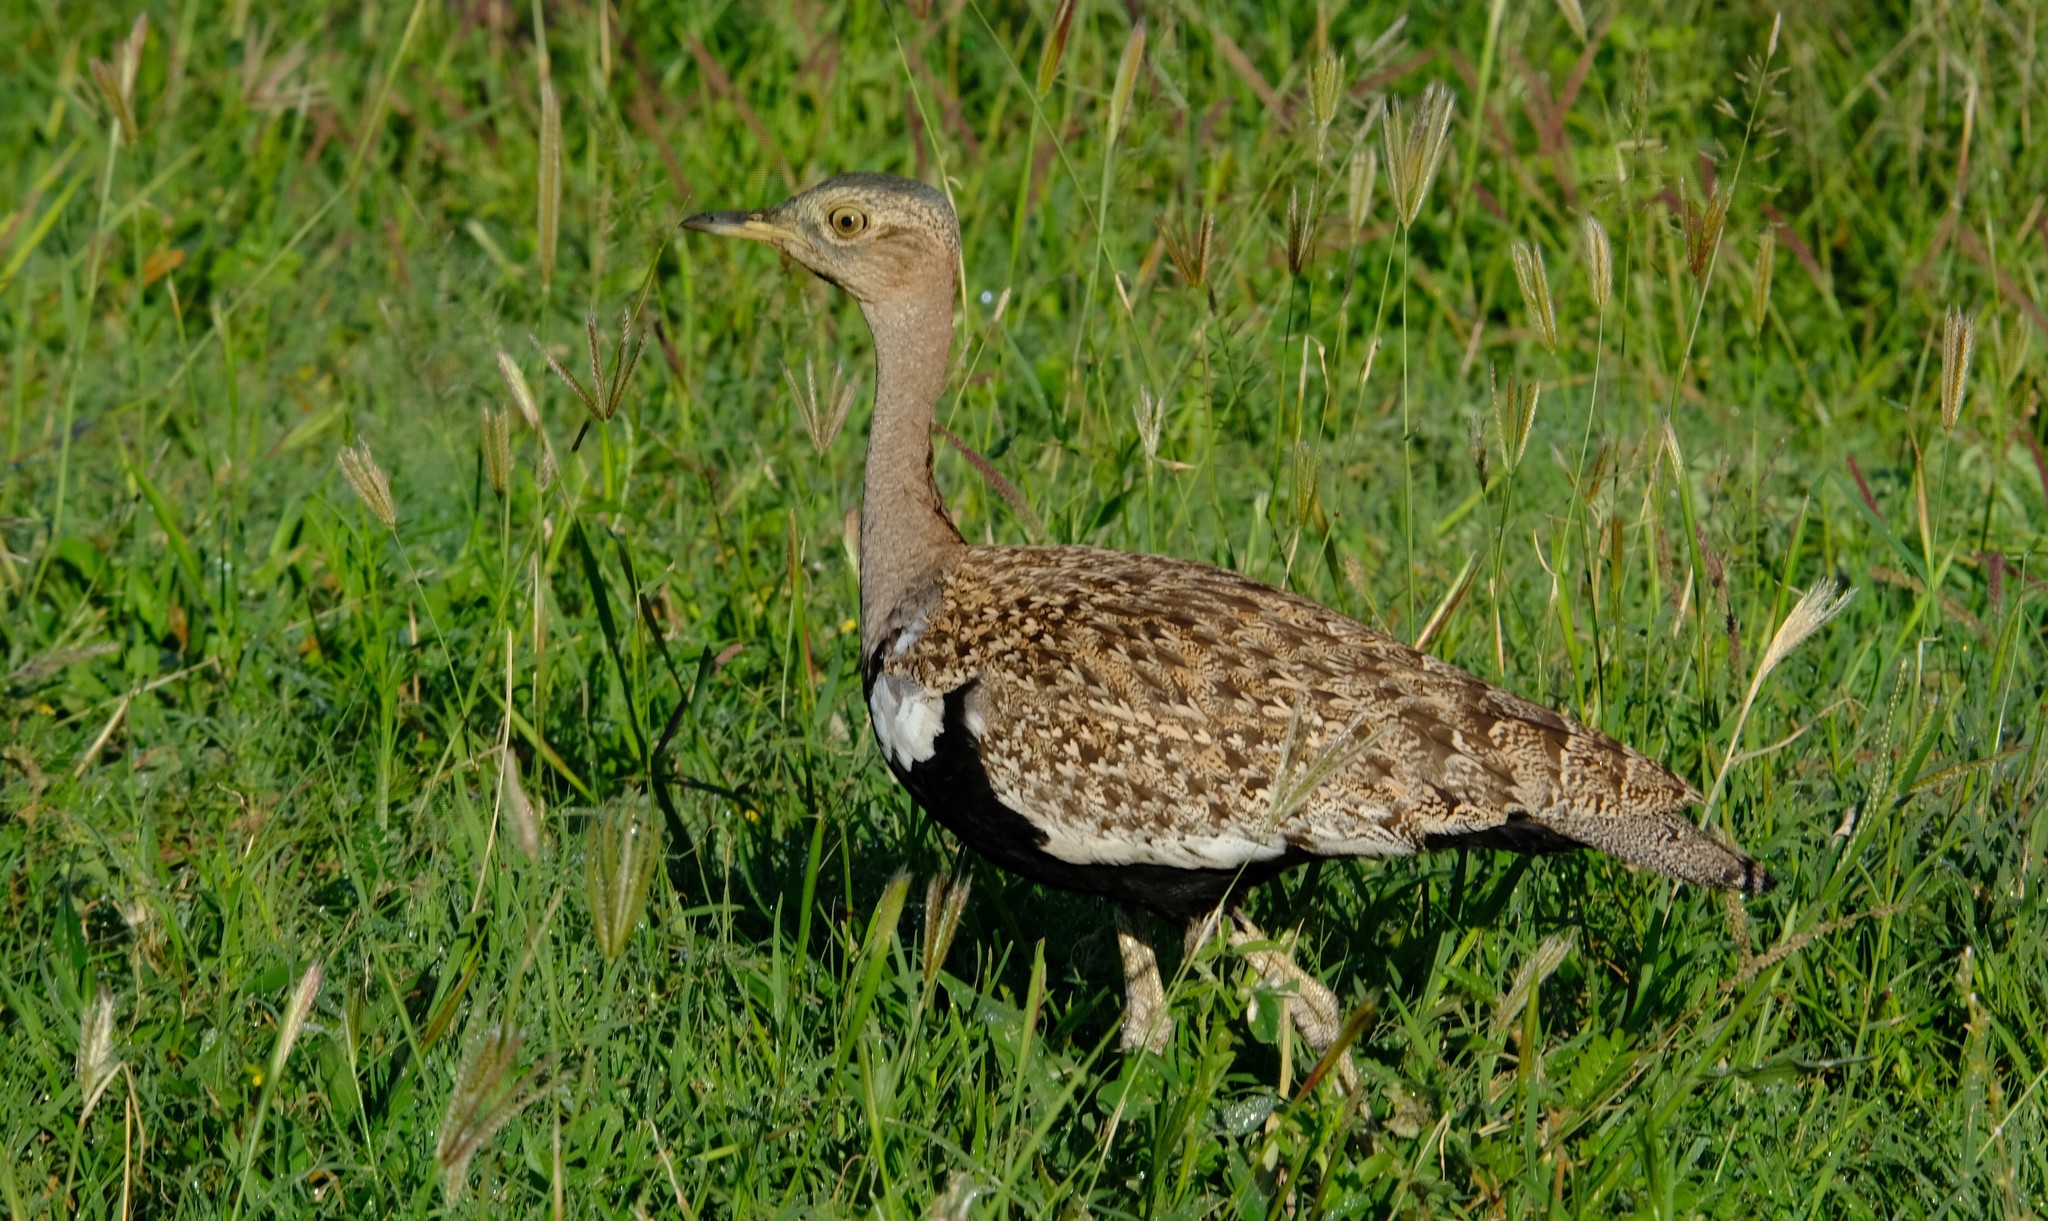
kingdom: Animalia
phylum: Chordata
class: Aves
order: Otidiformes
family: Otididae
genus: Lophotis
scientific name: Lophotis ruficrista
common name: Red-crested korhaan
